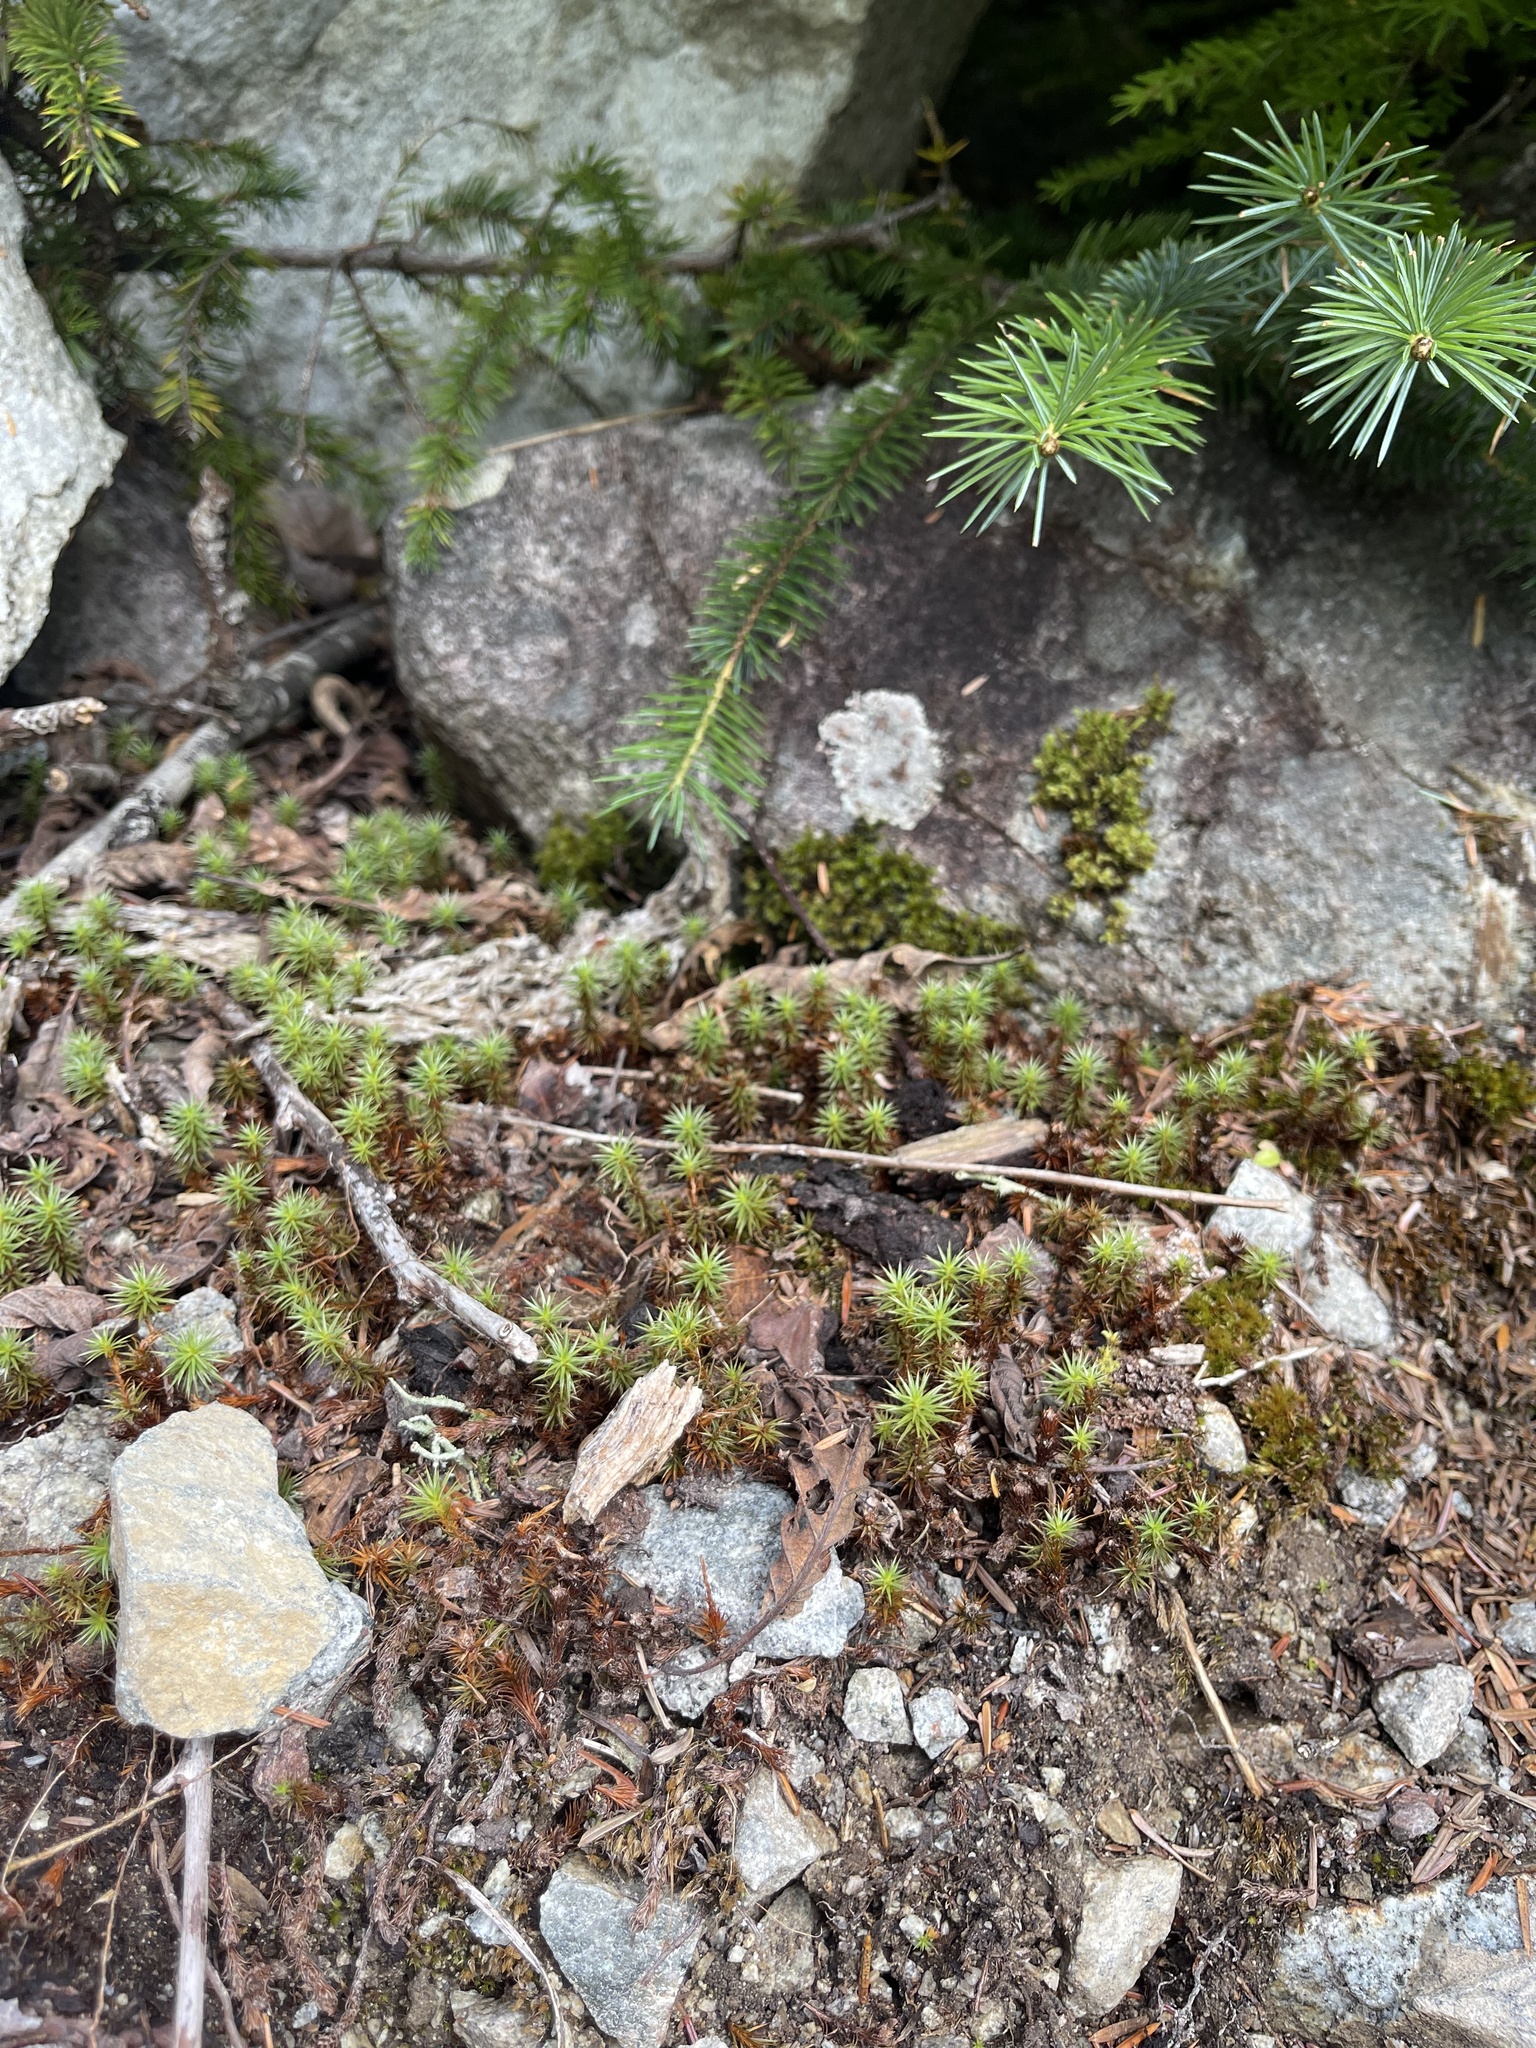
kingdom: Plantae
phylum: Bryophyta
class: Polytrichopsida
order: Polytrichales
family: Polytrichaceae
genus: Polytrichum
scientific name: Polytrichum juniperinum
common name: Juniper haircap moss
